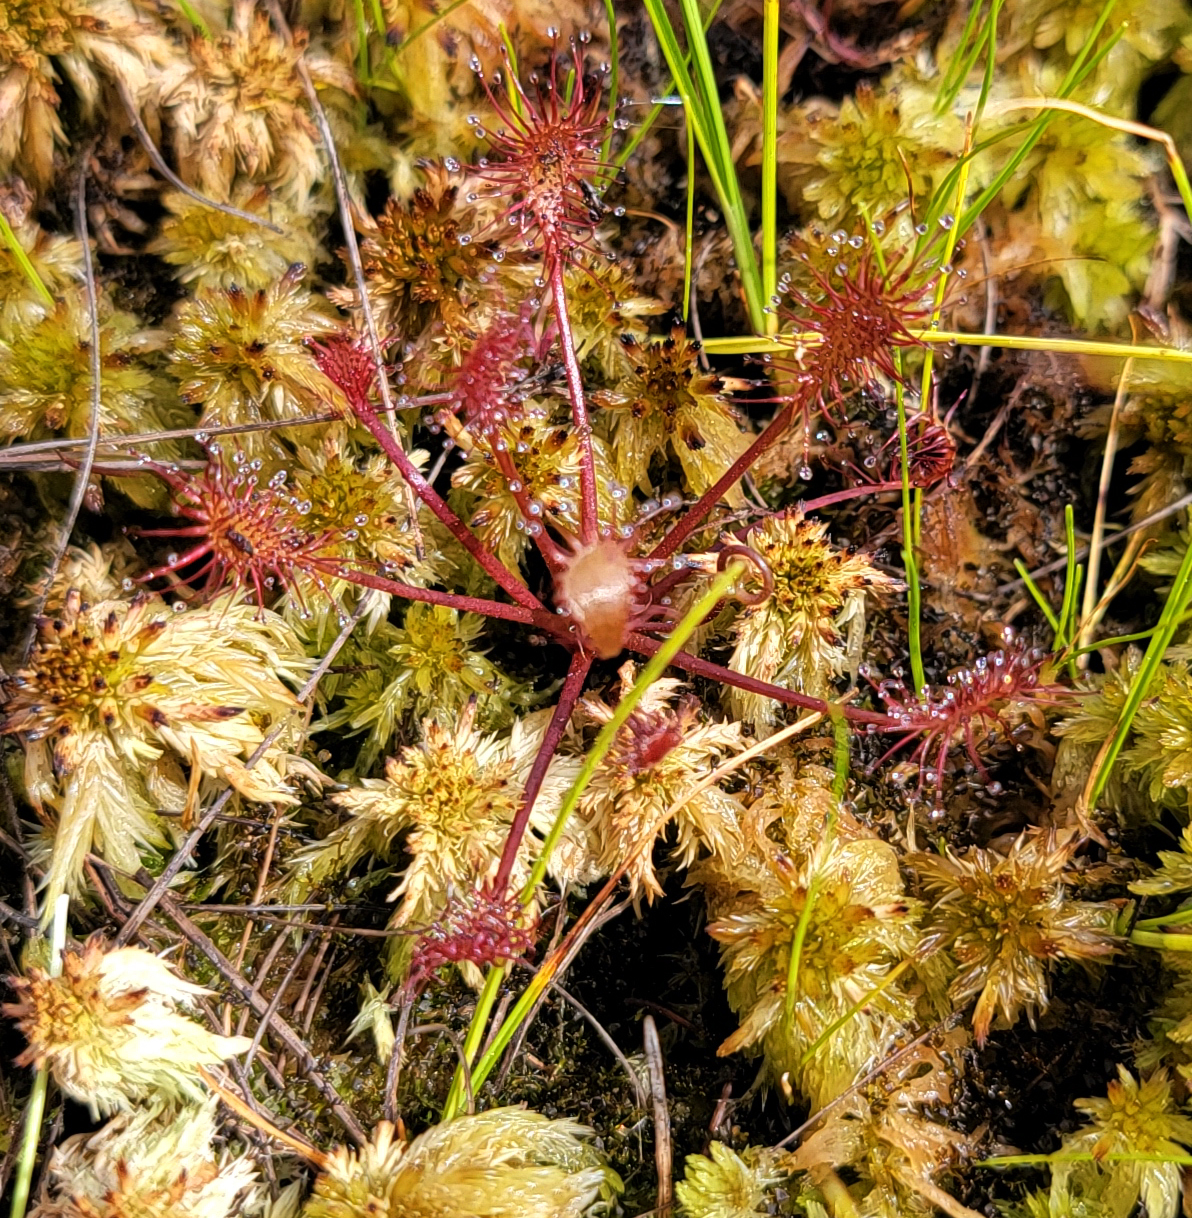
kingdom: Plantae
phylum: Tracheophyta
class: Magnoliopsida
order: Caryophyllales
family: Droseraceae
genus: Drosera
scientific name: Drosera intermedia
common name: Oblong-leaved sundew
